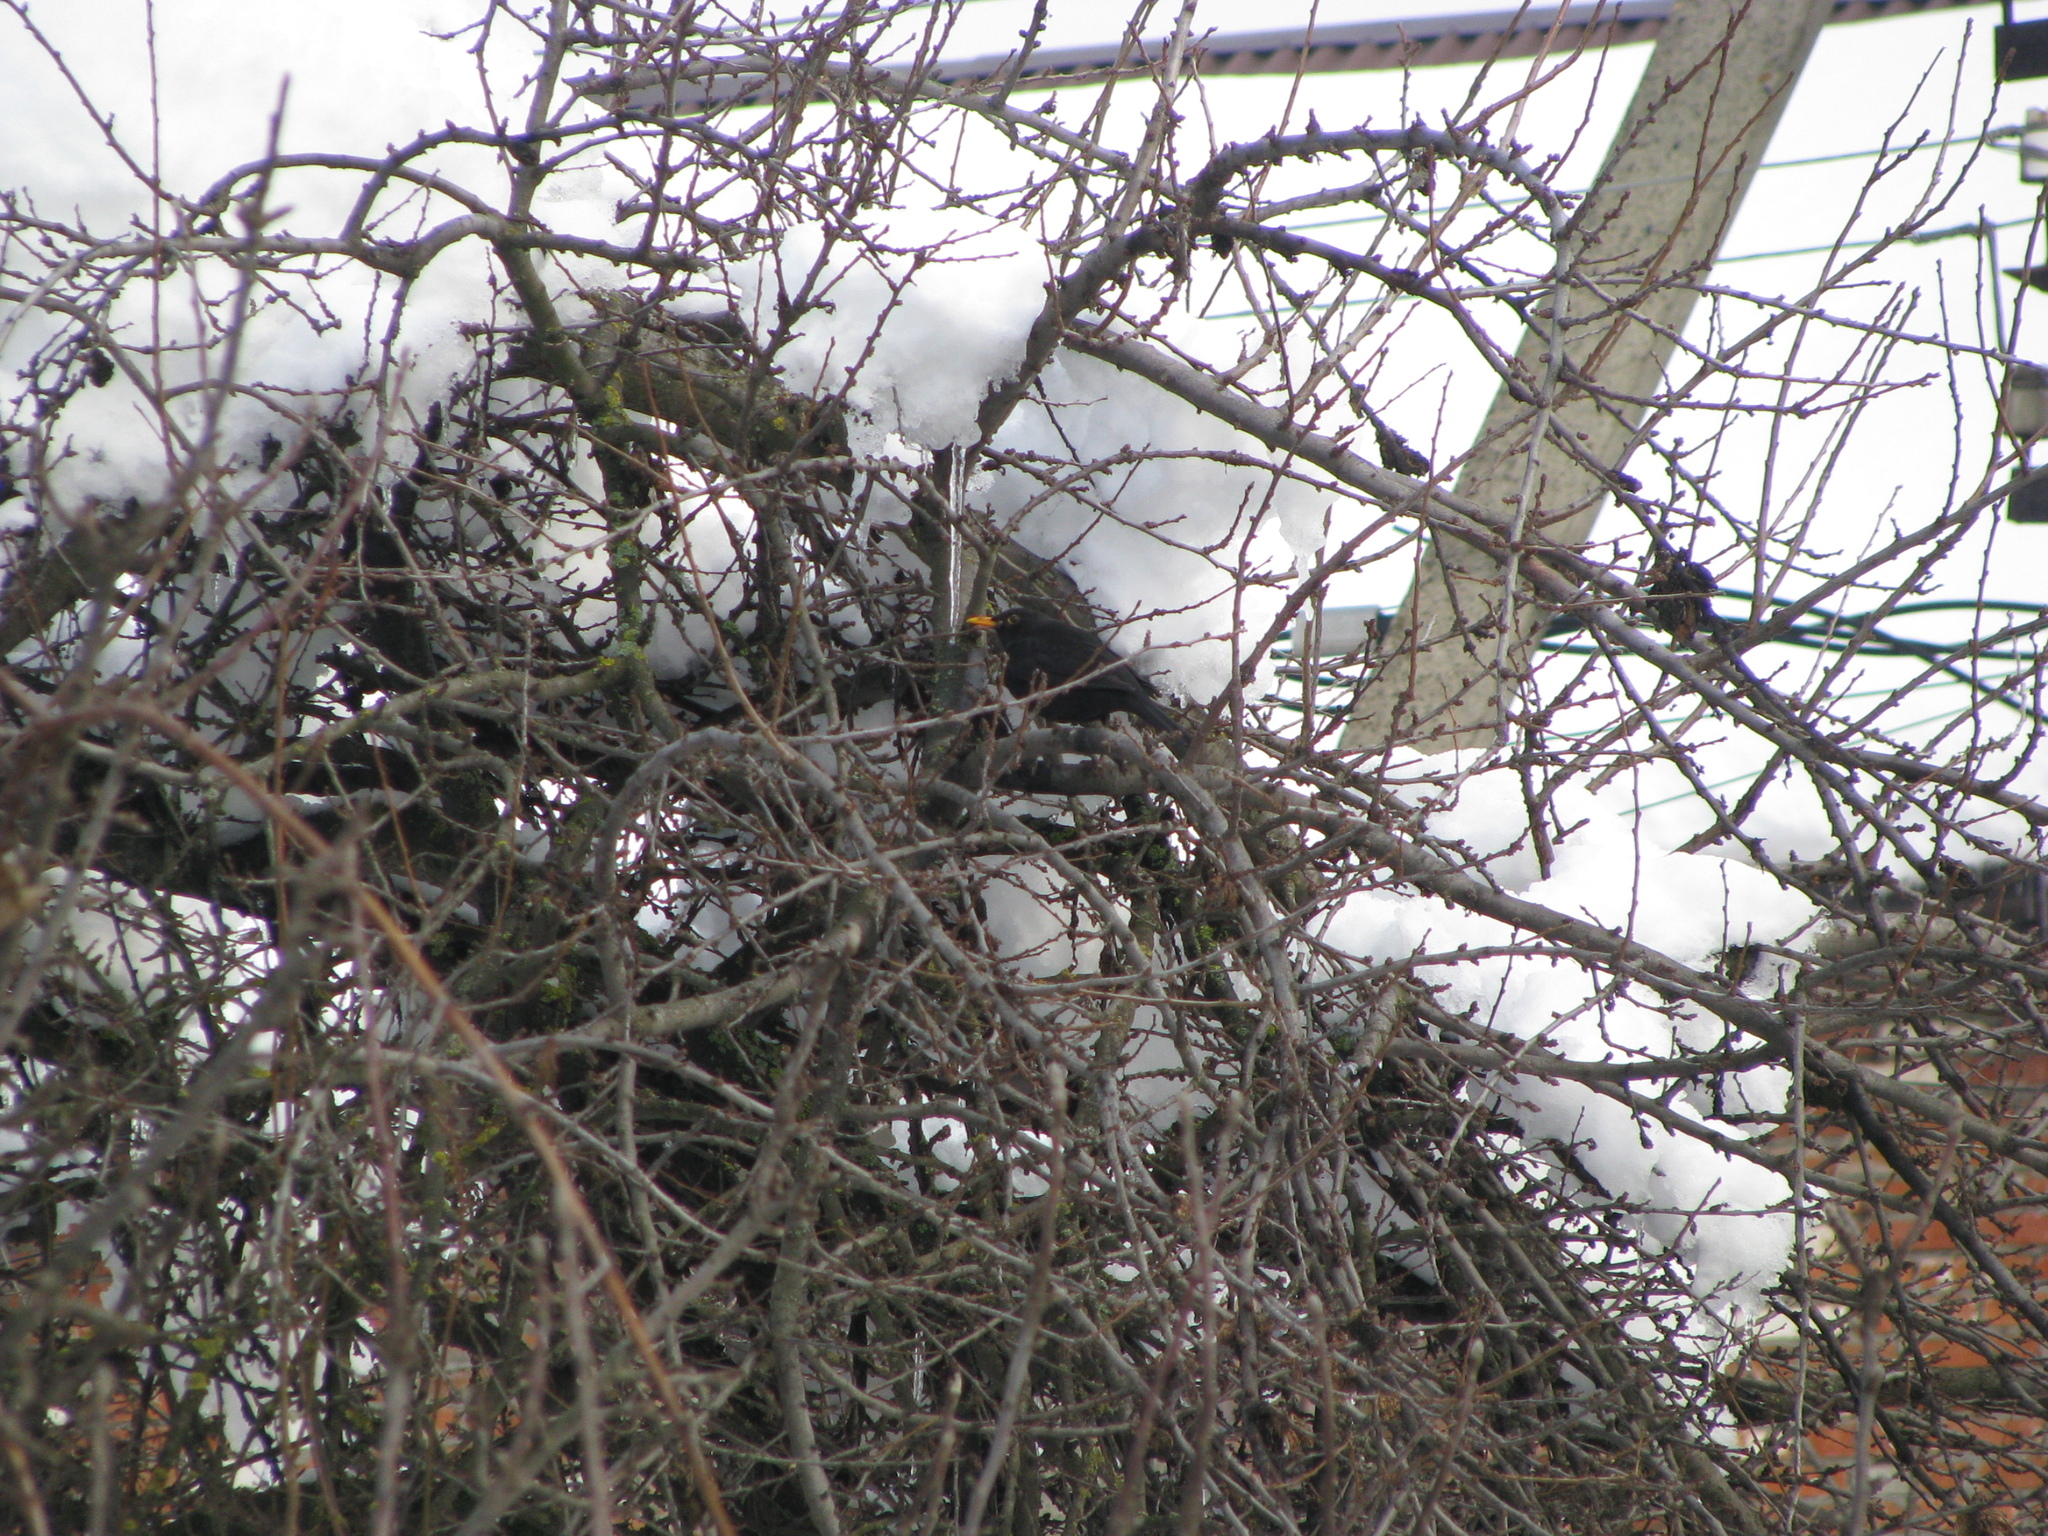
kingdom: Animalia
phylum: Chordata
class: Aves
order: Passeriformes
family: Turdidae
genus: Turdus
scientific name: Turdus merula
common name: Common blackbird
